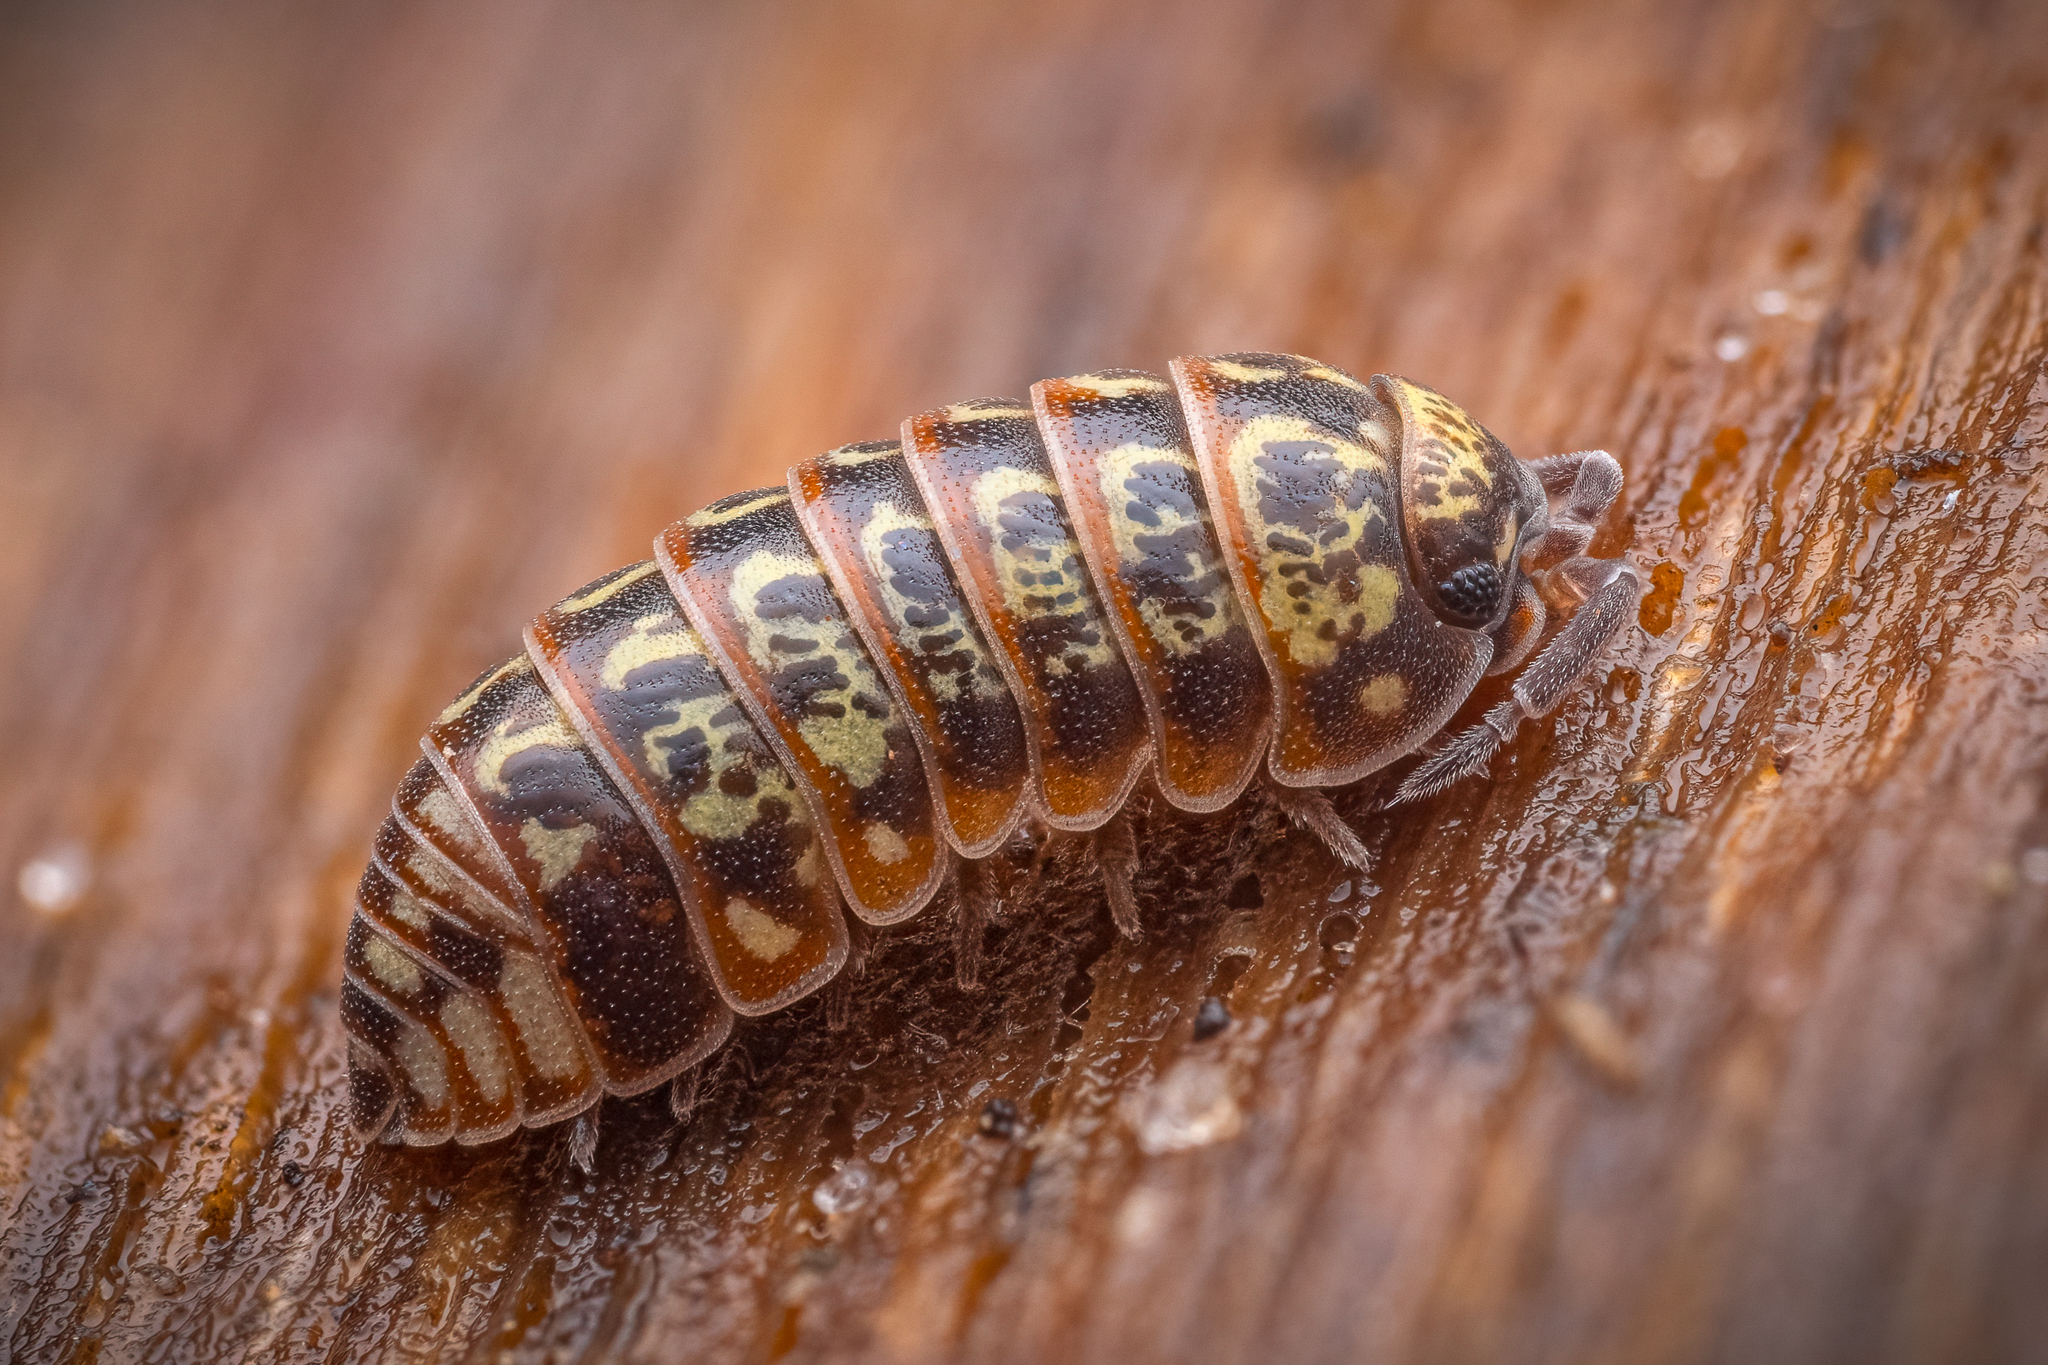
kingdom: Animalia
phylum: Arthropoda
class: Malacostraca
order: Isopoda
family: Armadillidiidae
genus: Armadillidium
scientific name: Armadillidium pulchellum
